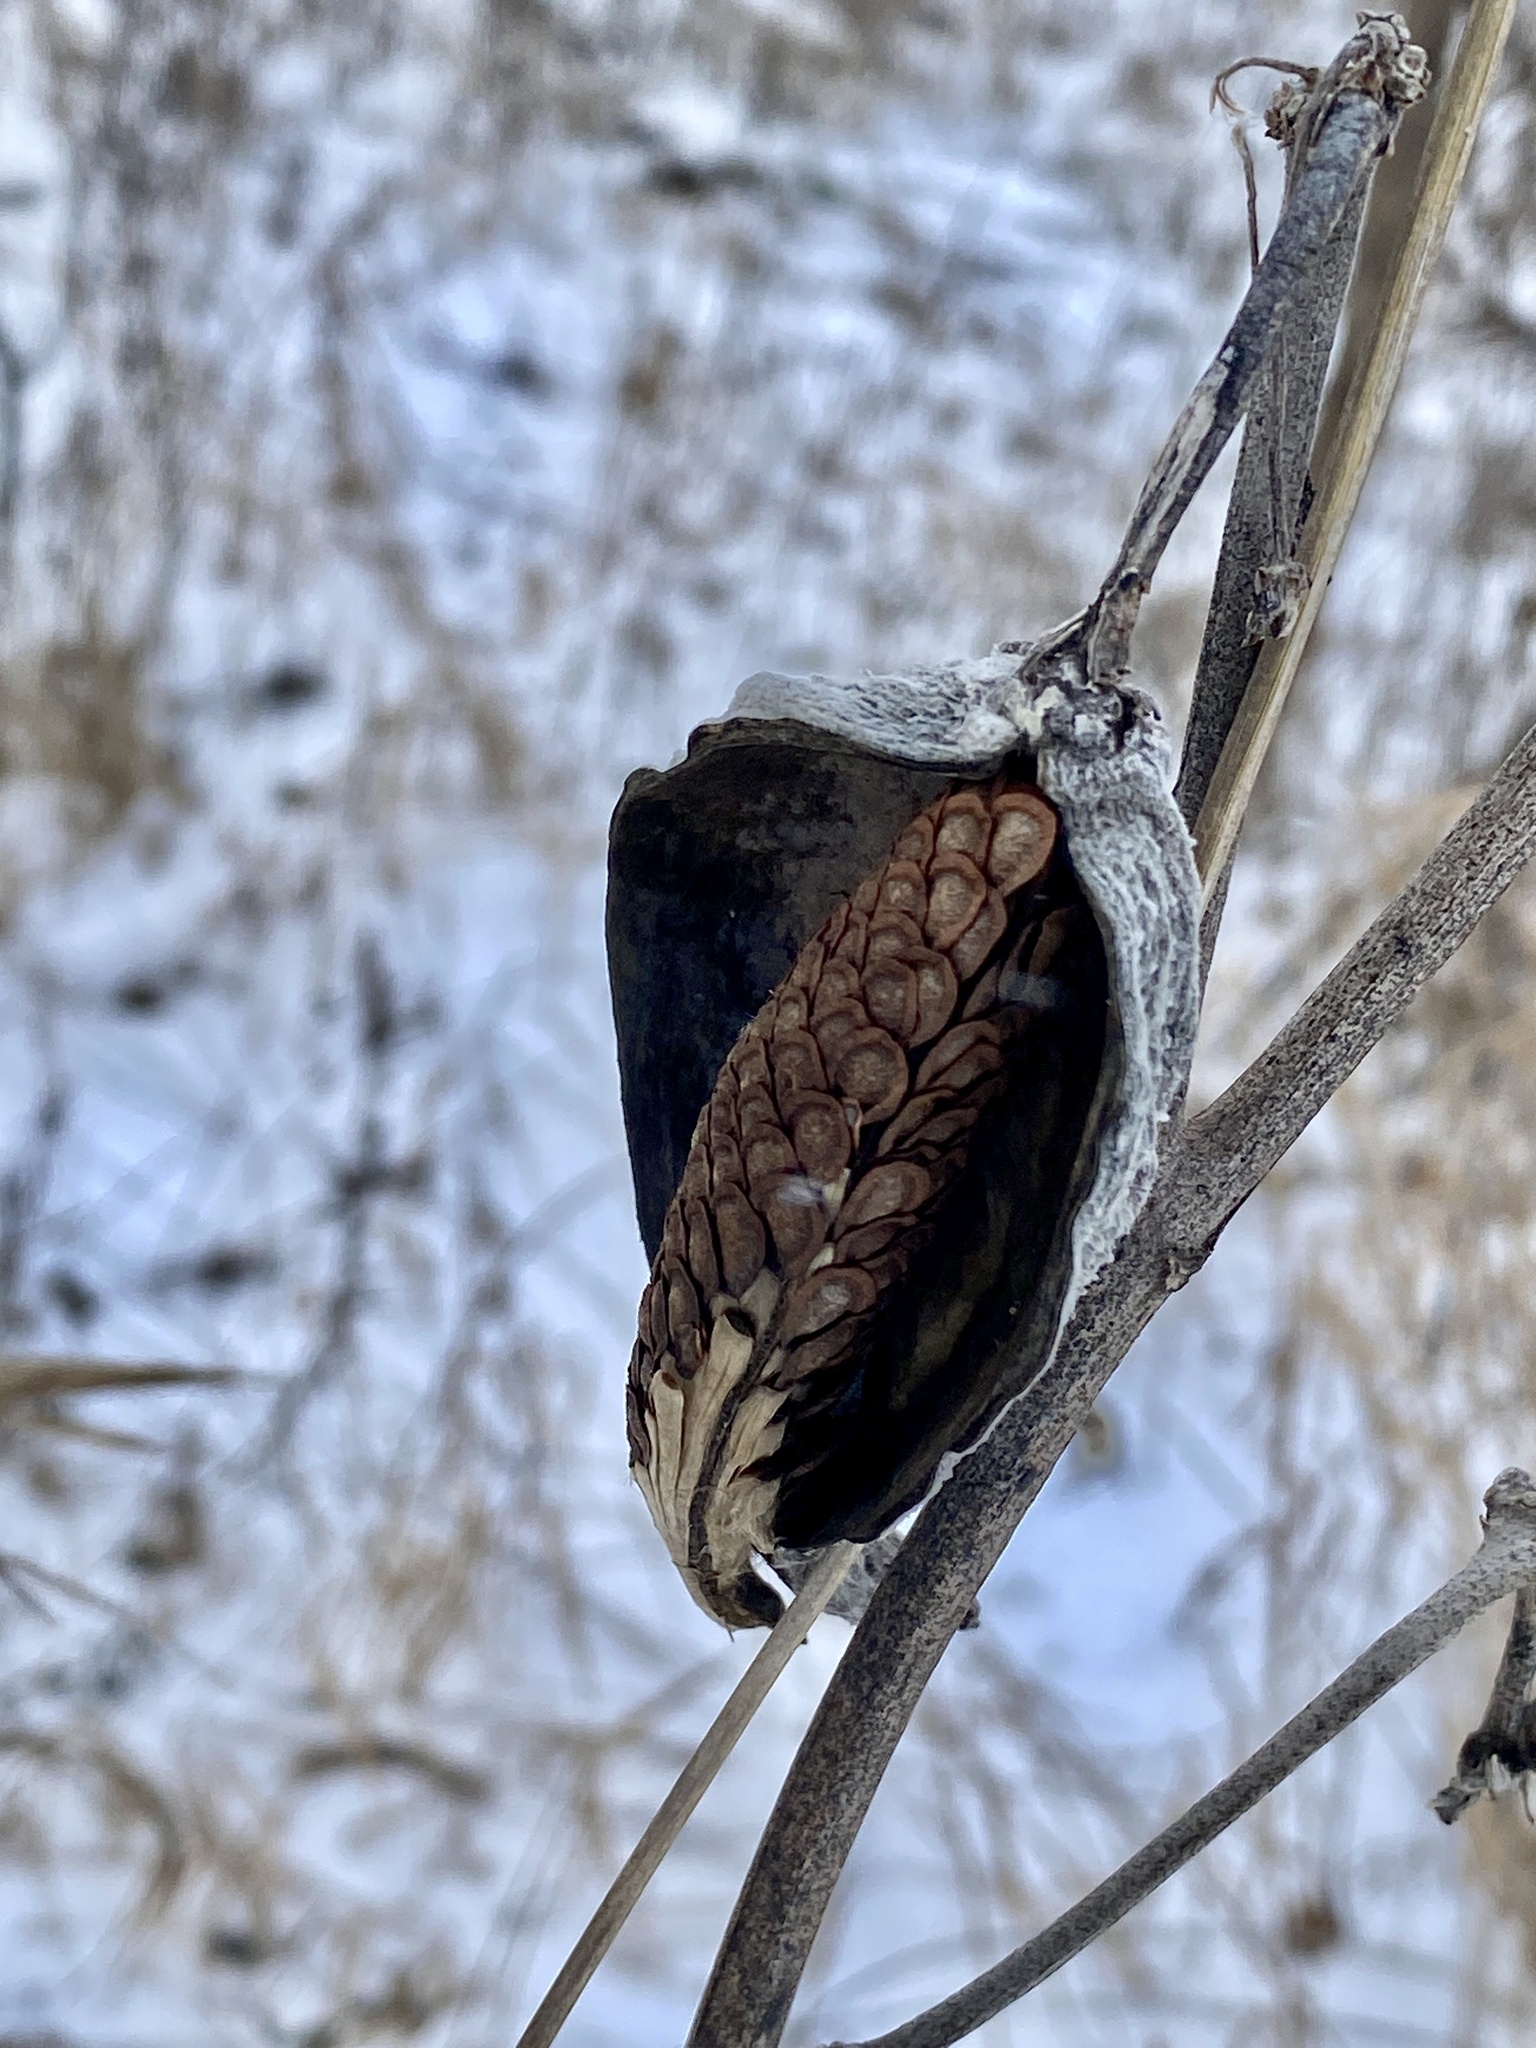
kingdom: Plantae
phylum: Tracheophyta
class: Magnoliopsida
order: Gentianales
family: Apocynaceae
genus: Asclepias
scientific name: Asclepias syriaca
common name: Common milkweed
